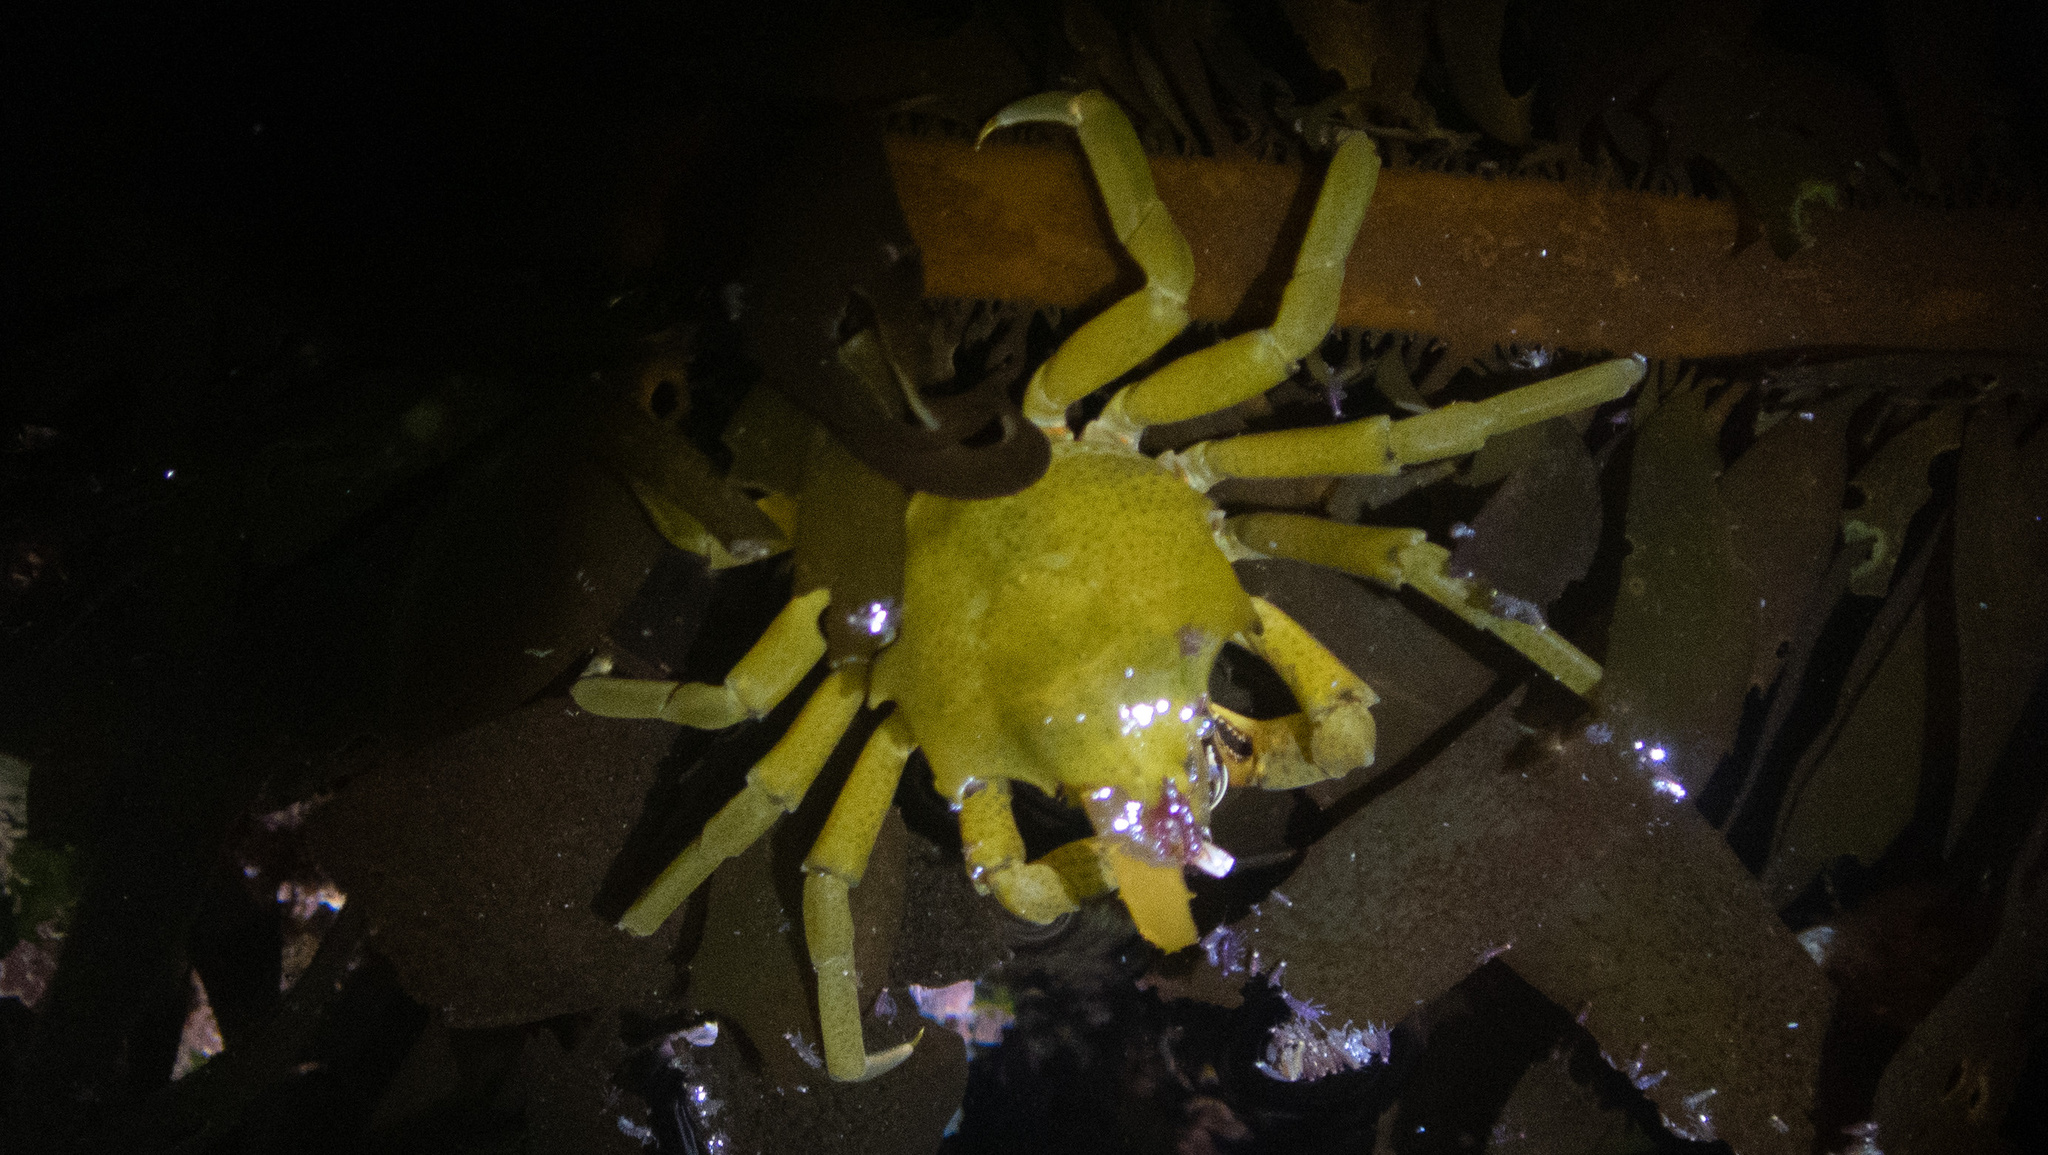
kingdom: Animalia
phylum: Arthropoda
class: Malacostraca
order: Decapoda
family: Epialtidae
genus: Pugettia
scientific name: Pugettia producta
